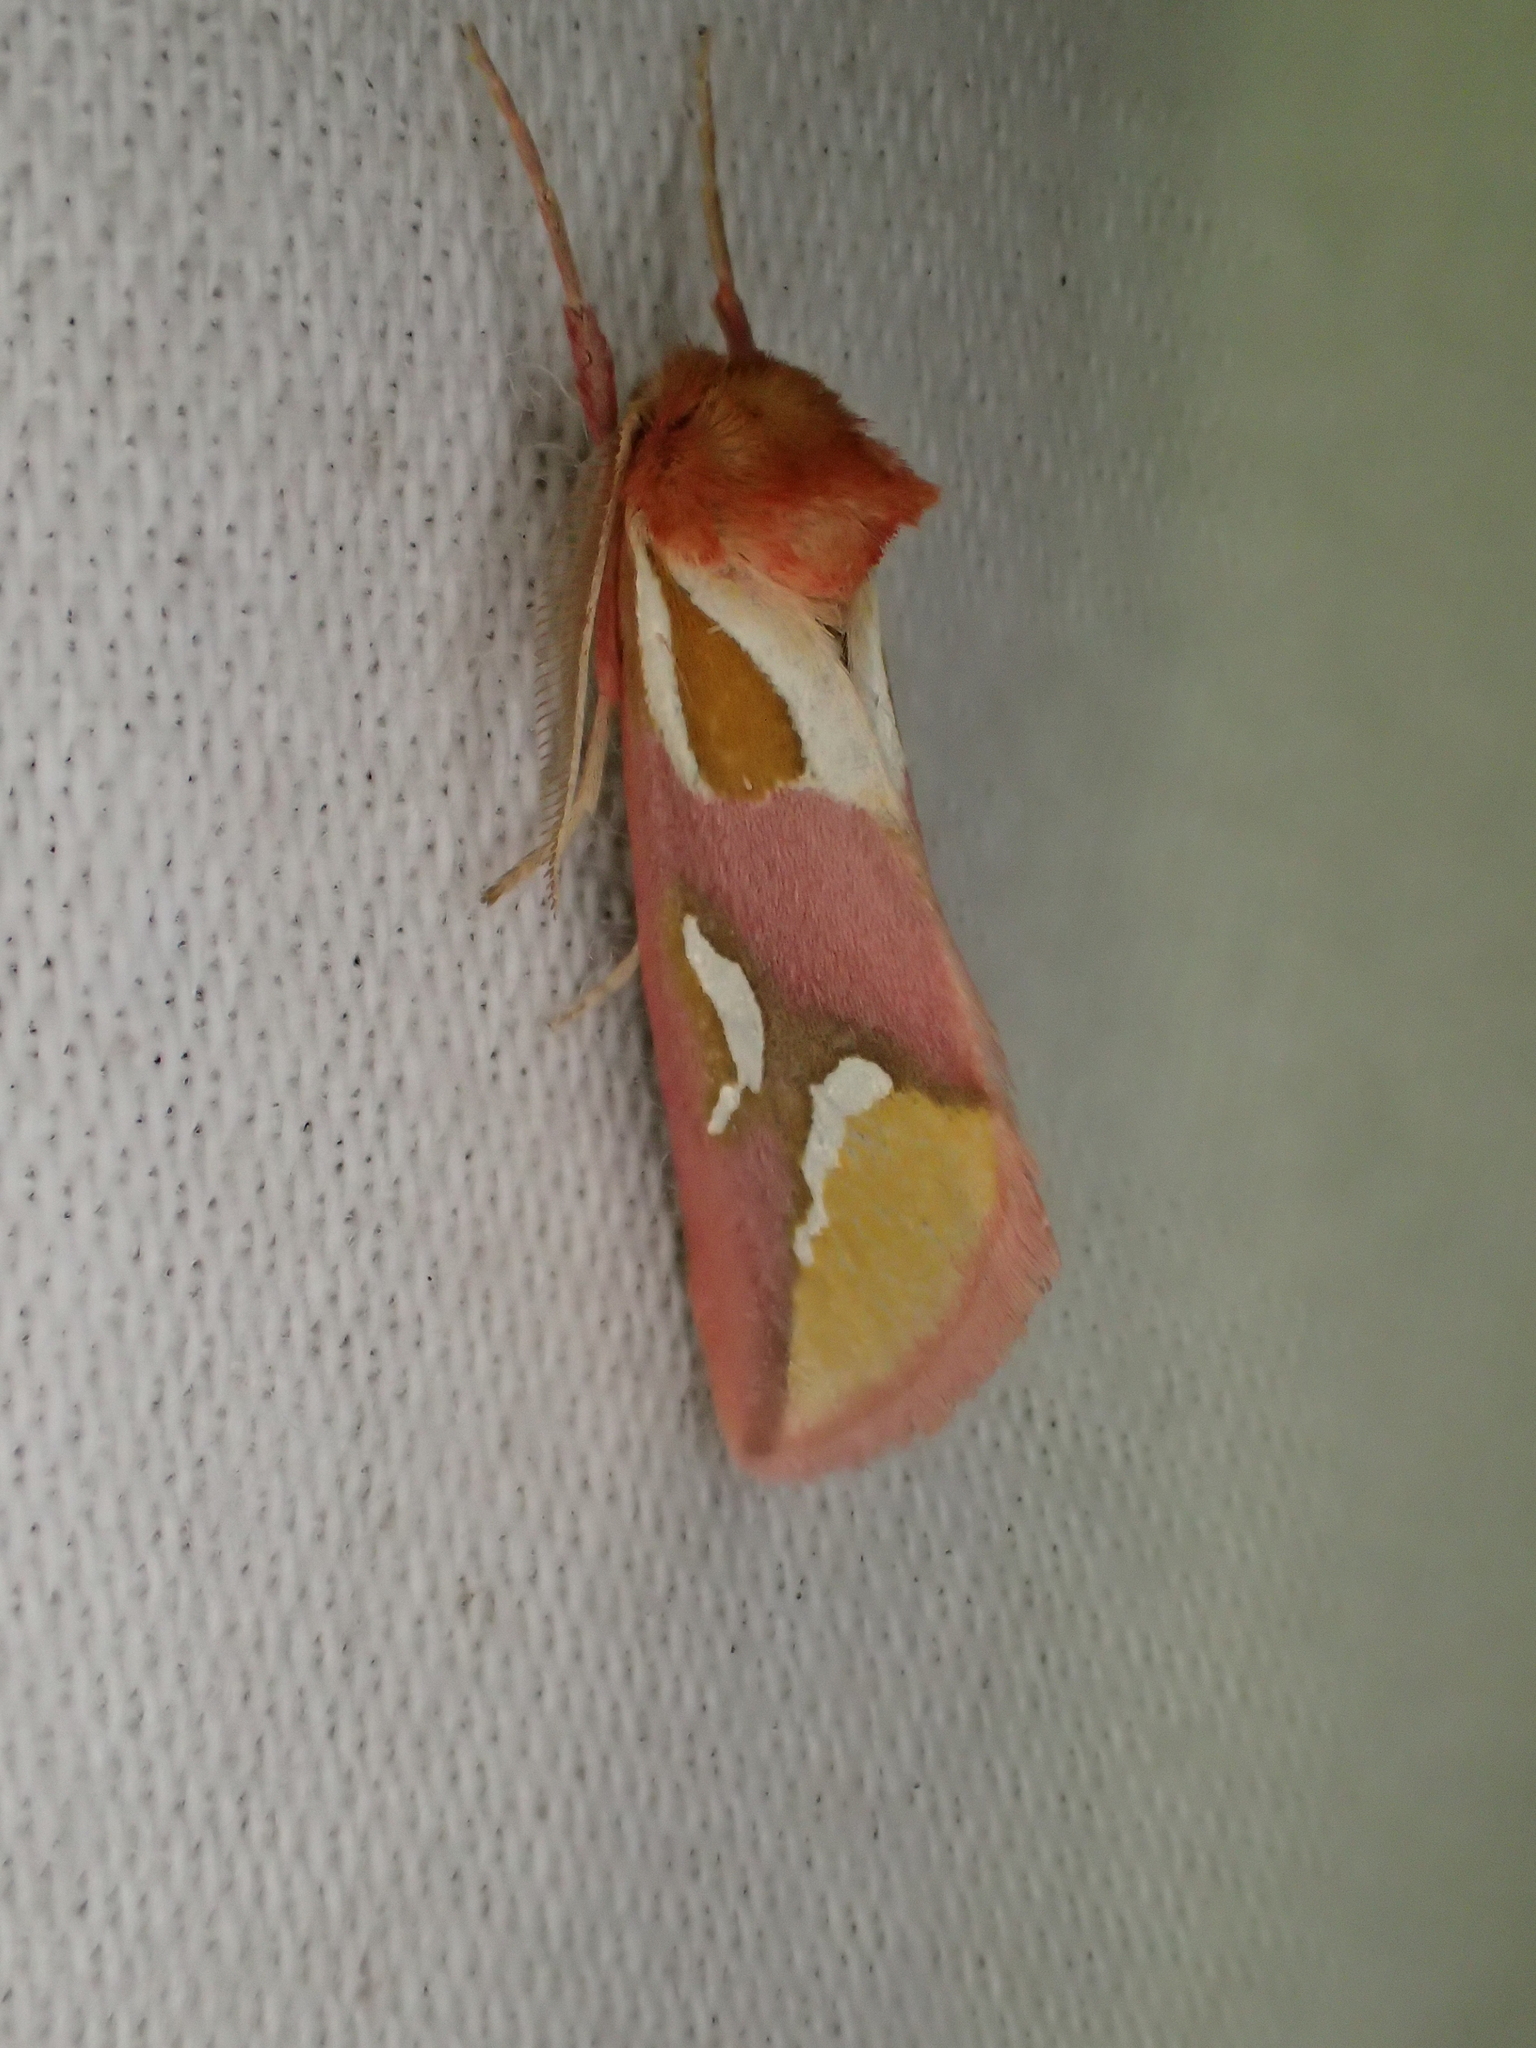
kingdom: Animalia
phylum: Arthropoda
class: Insecta
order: Lepidoptera
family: Cimeliidae
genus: Axia
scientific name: Axia margarita
